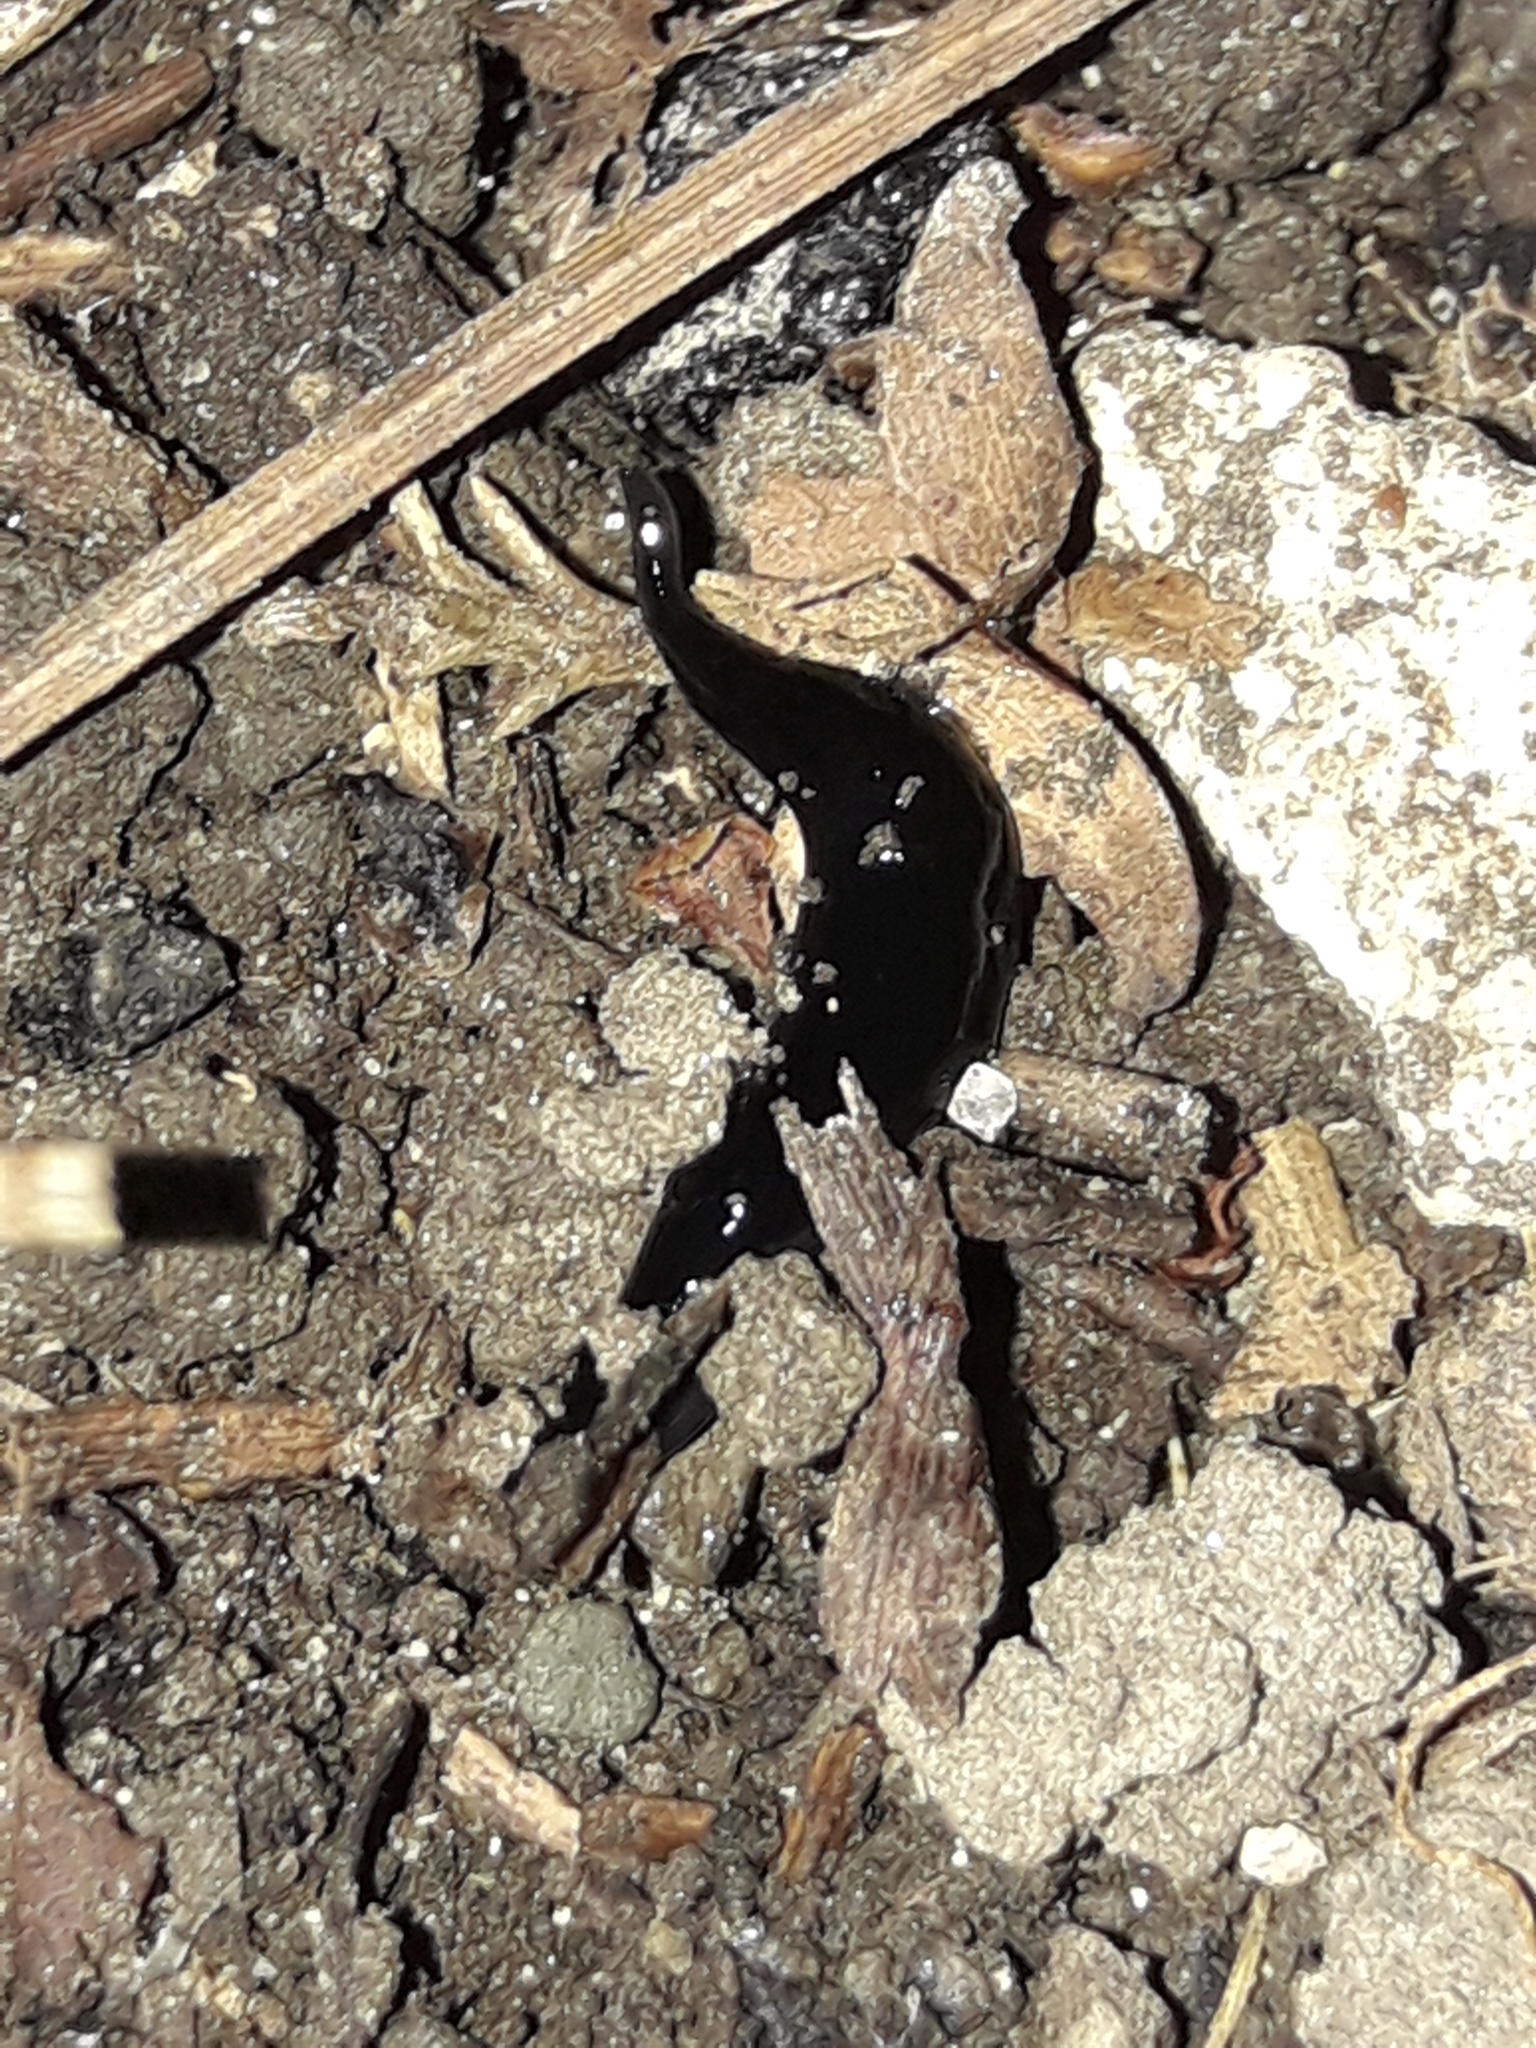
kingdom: Animalia
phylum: Platyhelminthes
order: Tricladida
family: Geoplanidae
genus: Kontikia
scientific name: Kontikia atrata
